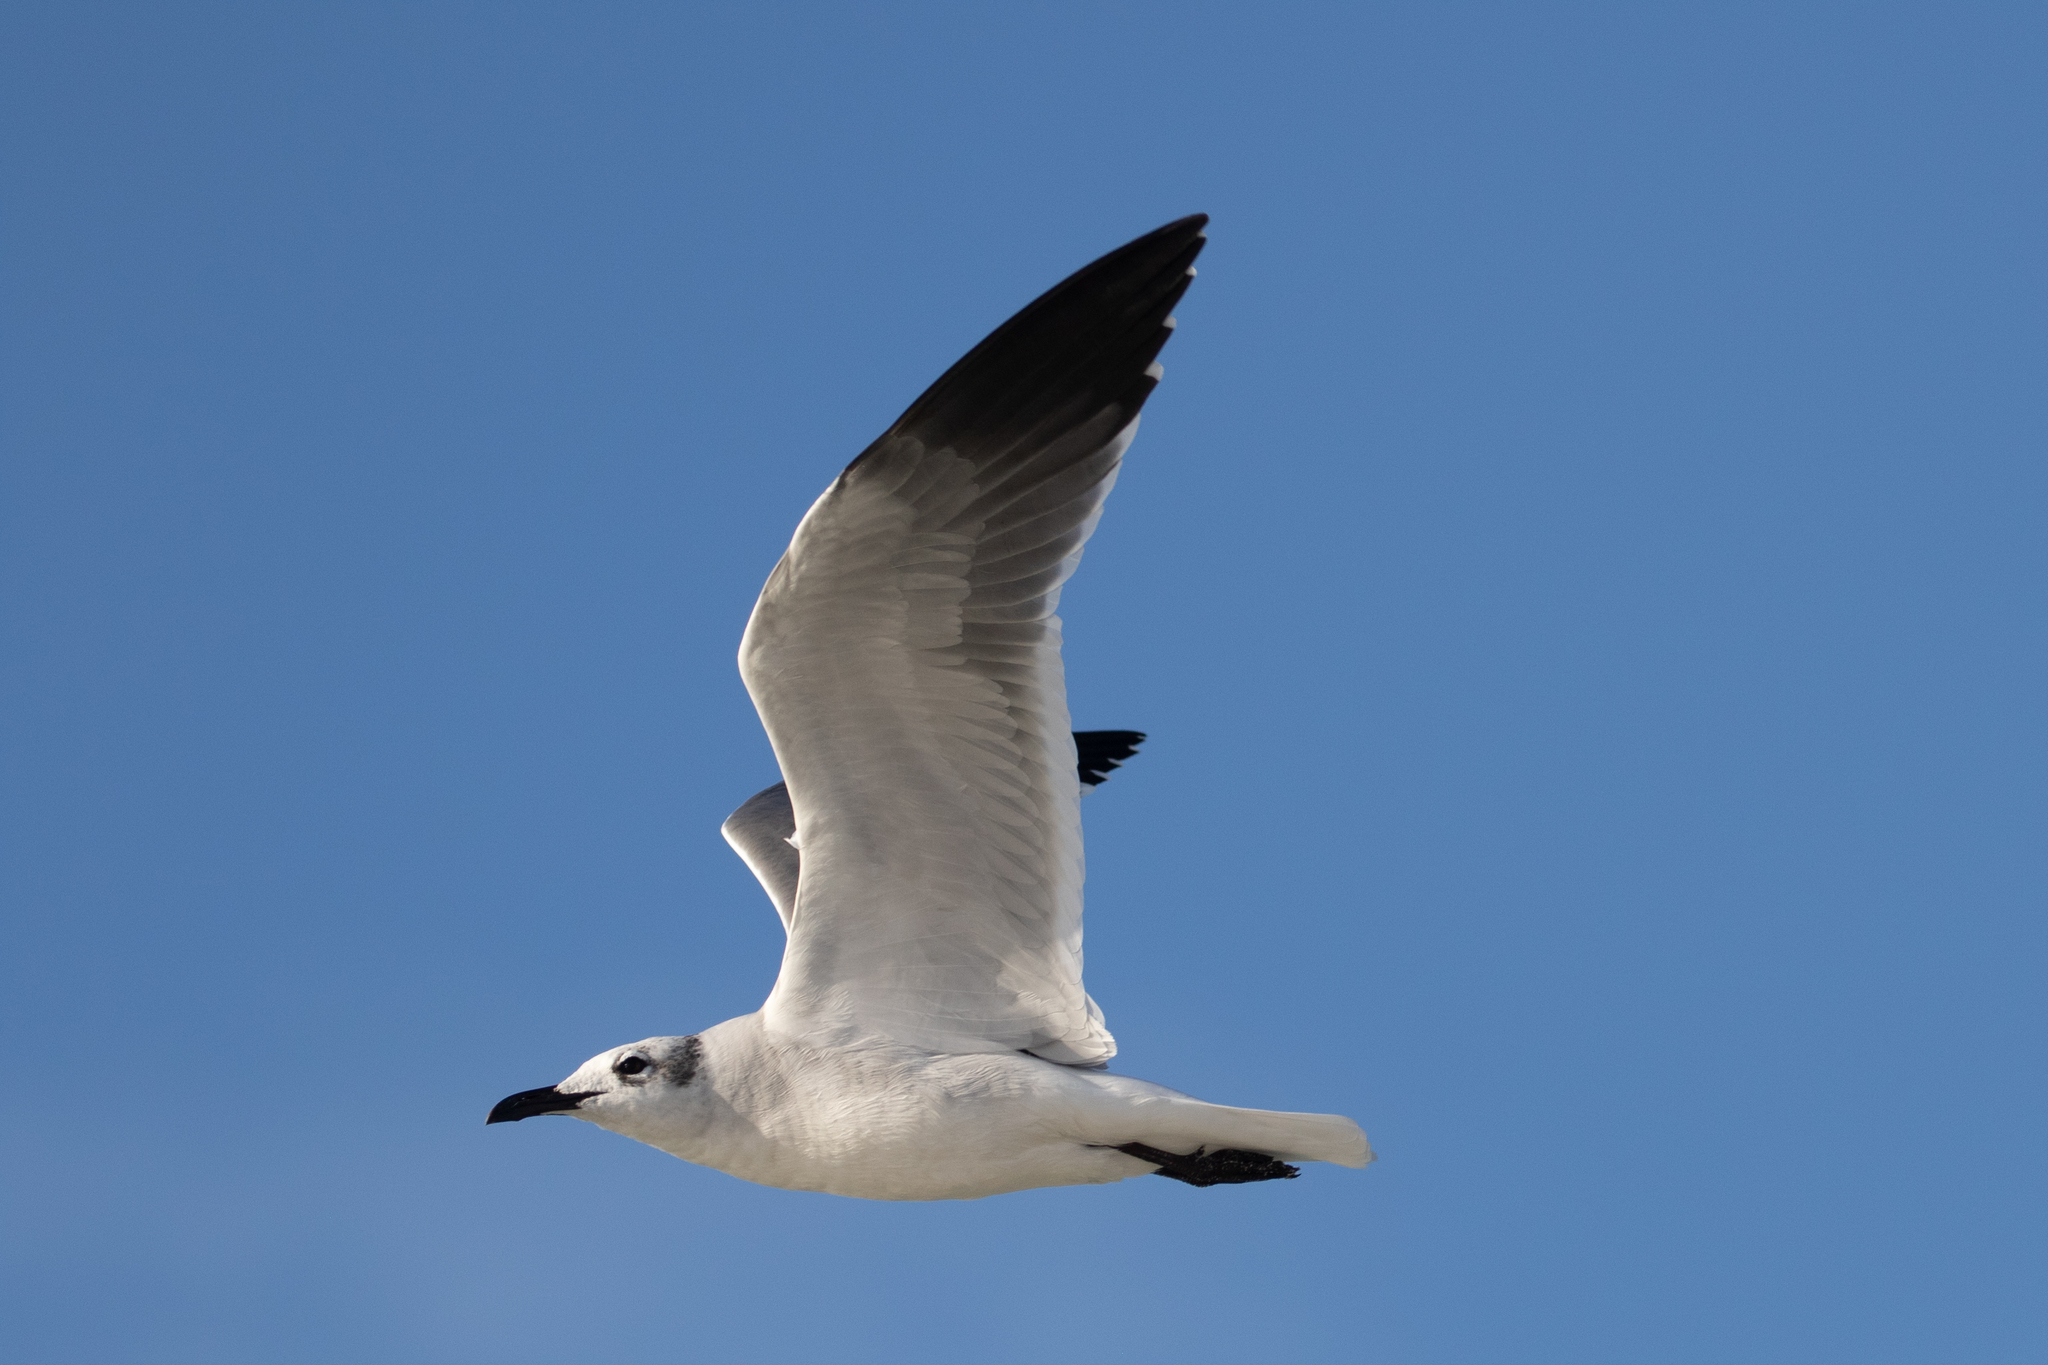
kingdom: Animalia
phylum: Chordata
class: Aves
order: Charadriiformes
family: Laridae
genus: Leucophaeus
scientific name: Leucophaeus atricilla
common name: Laughing gull
